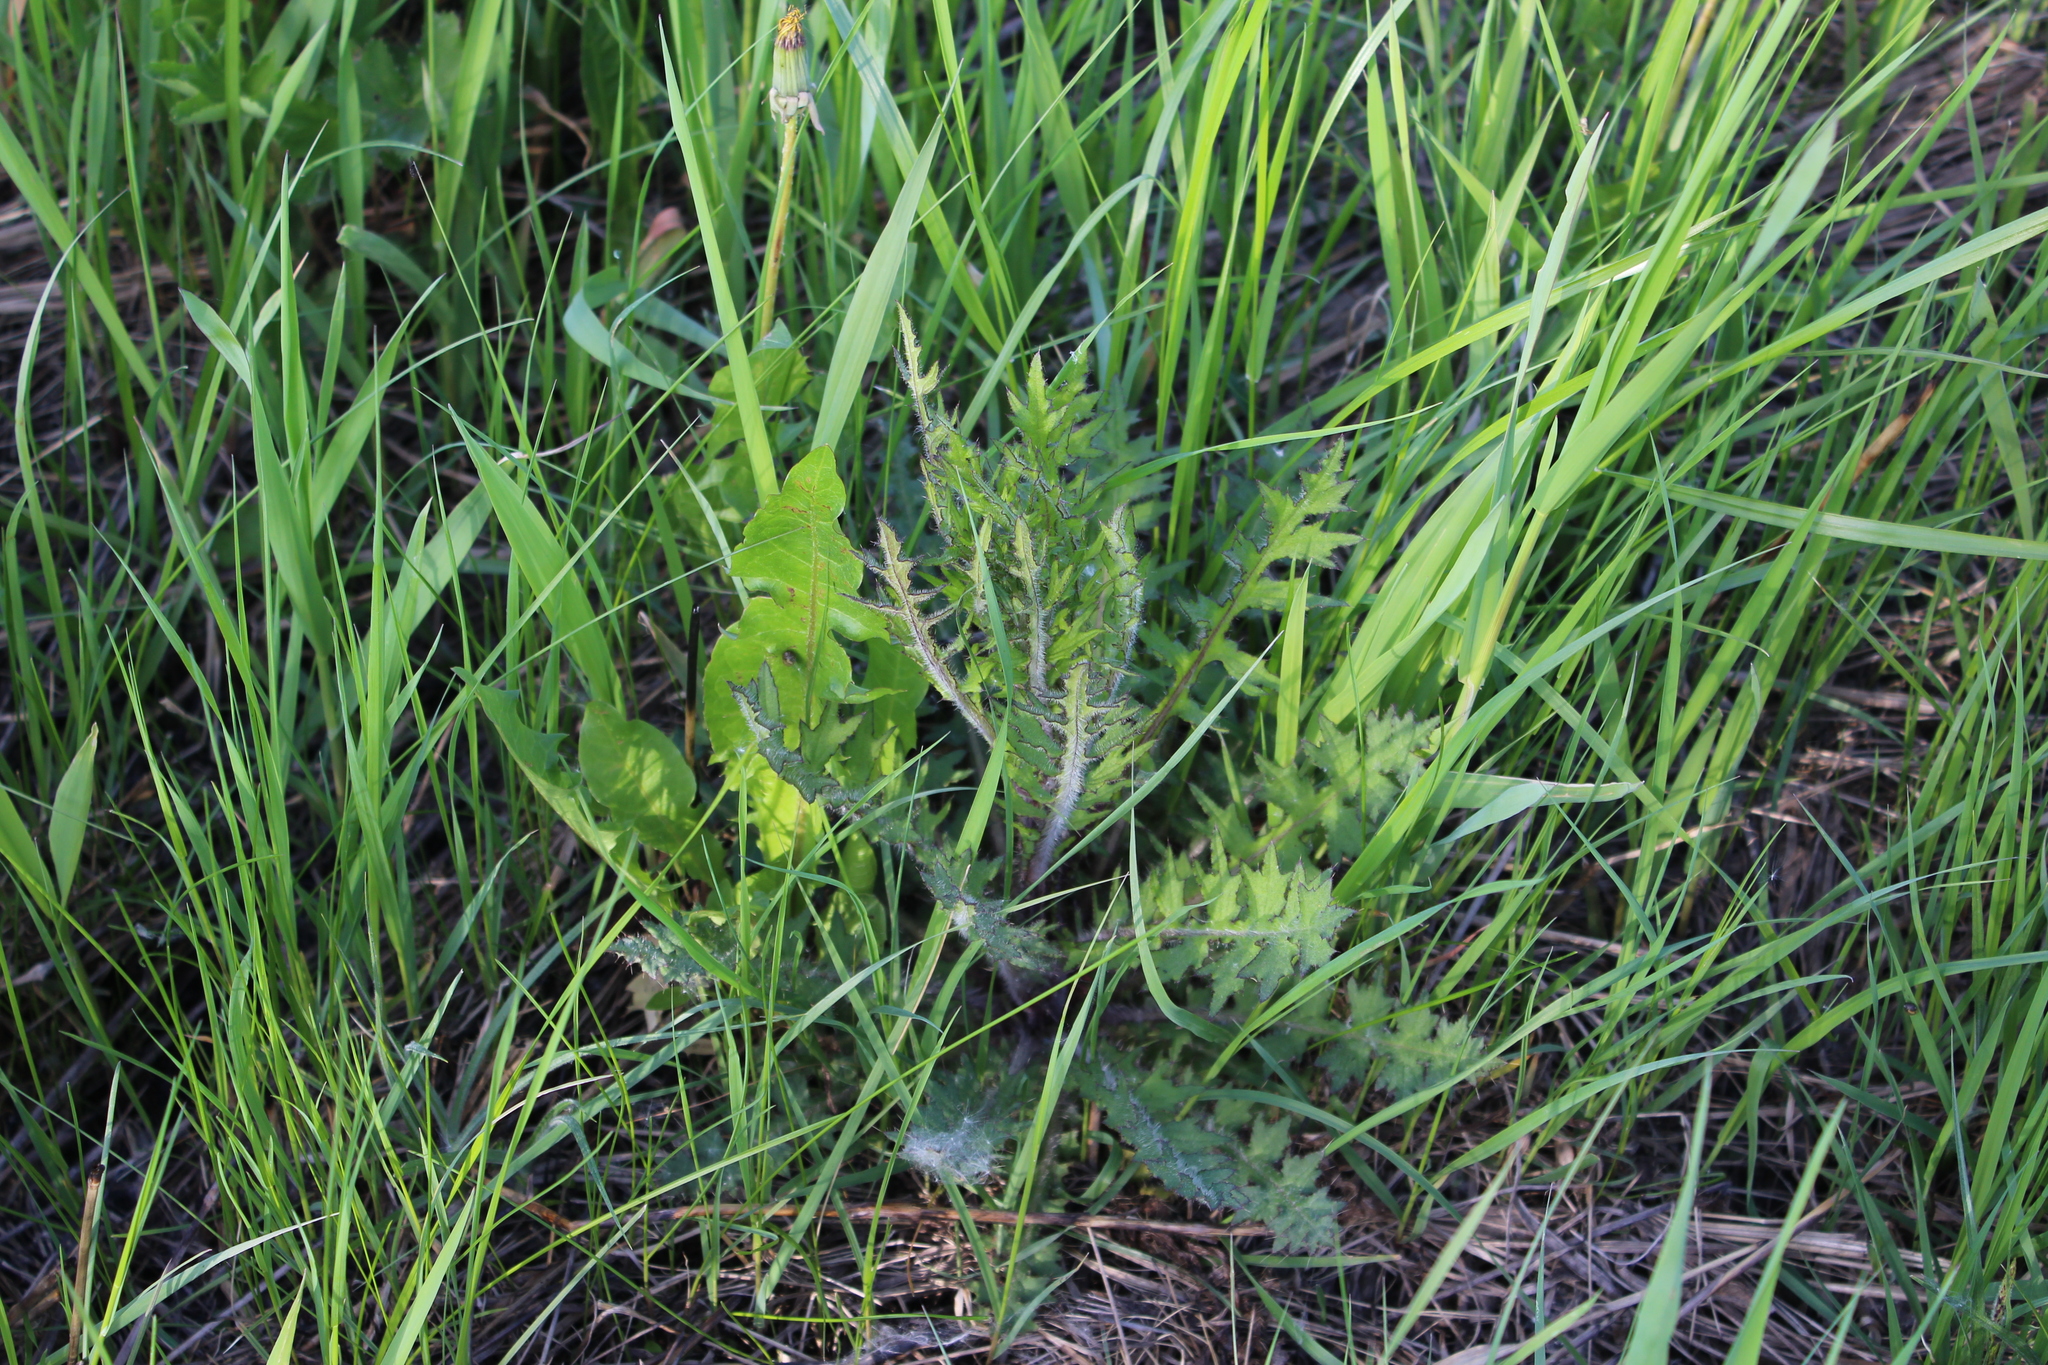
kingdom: Plantae
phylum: Tracheophyta
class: Magnoliopsida
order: Asterales
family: Asteraceae
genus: Cirsium
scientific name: Cirsium palustre
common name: Marsh thistle
